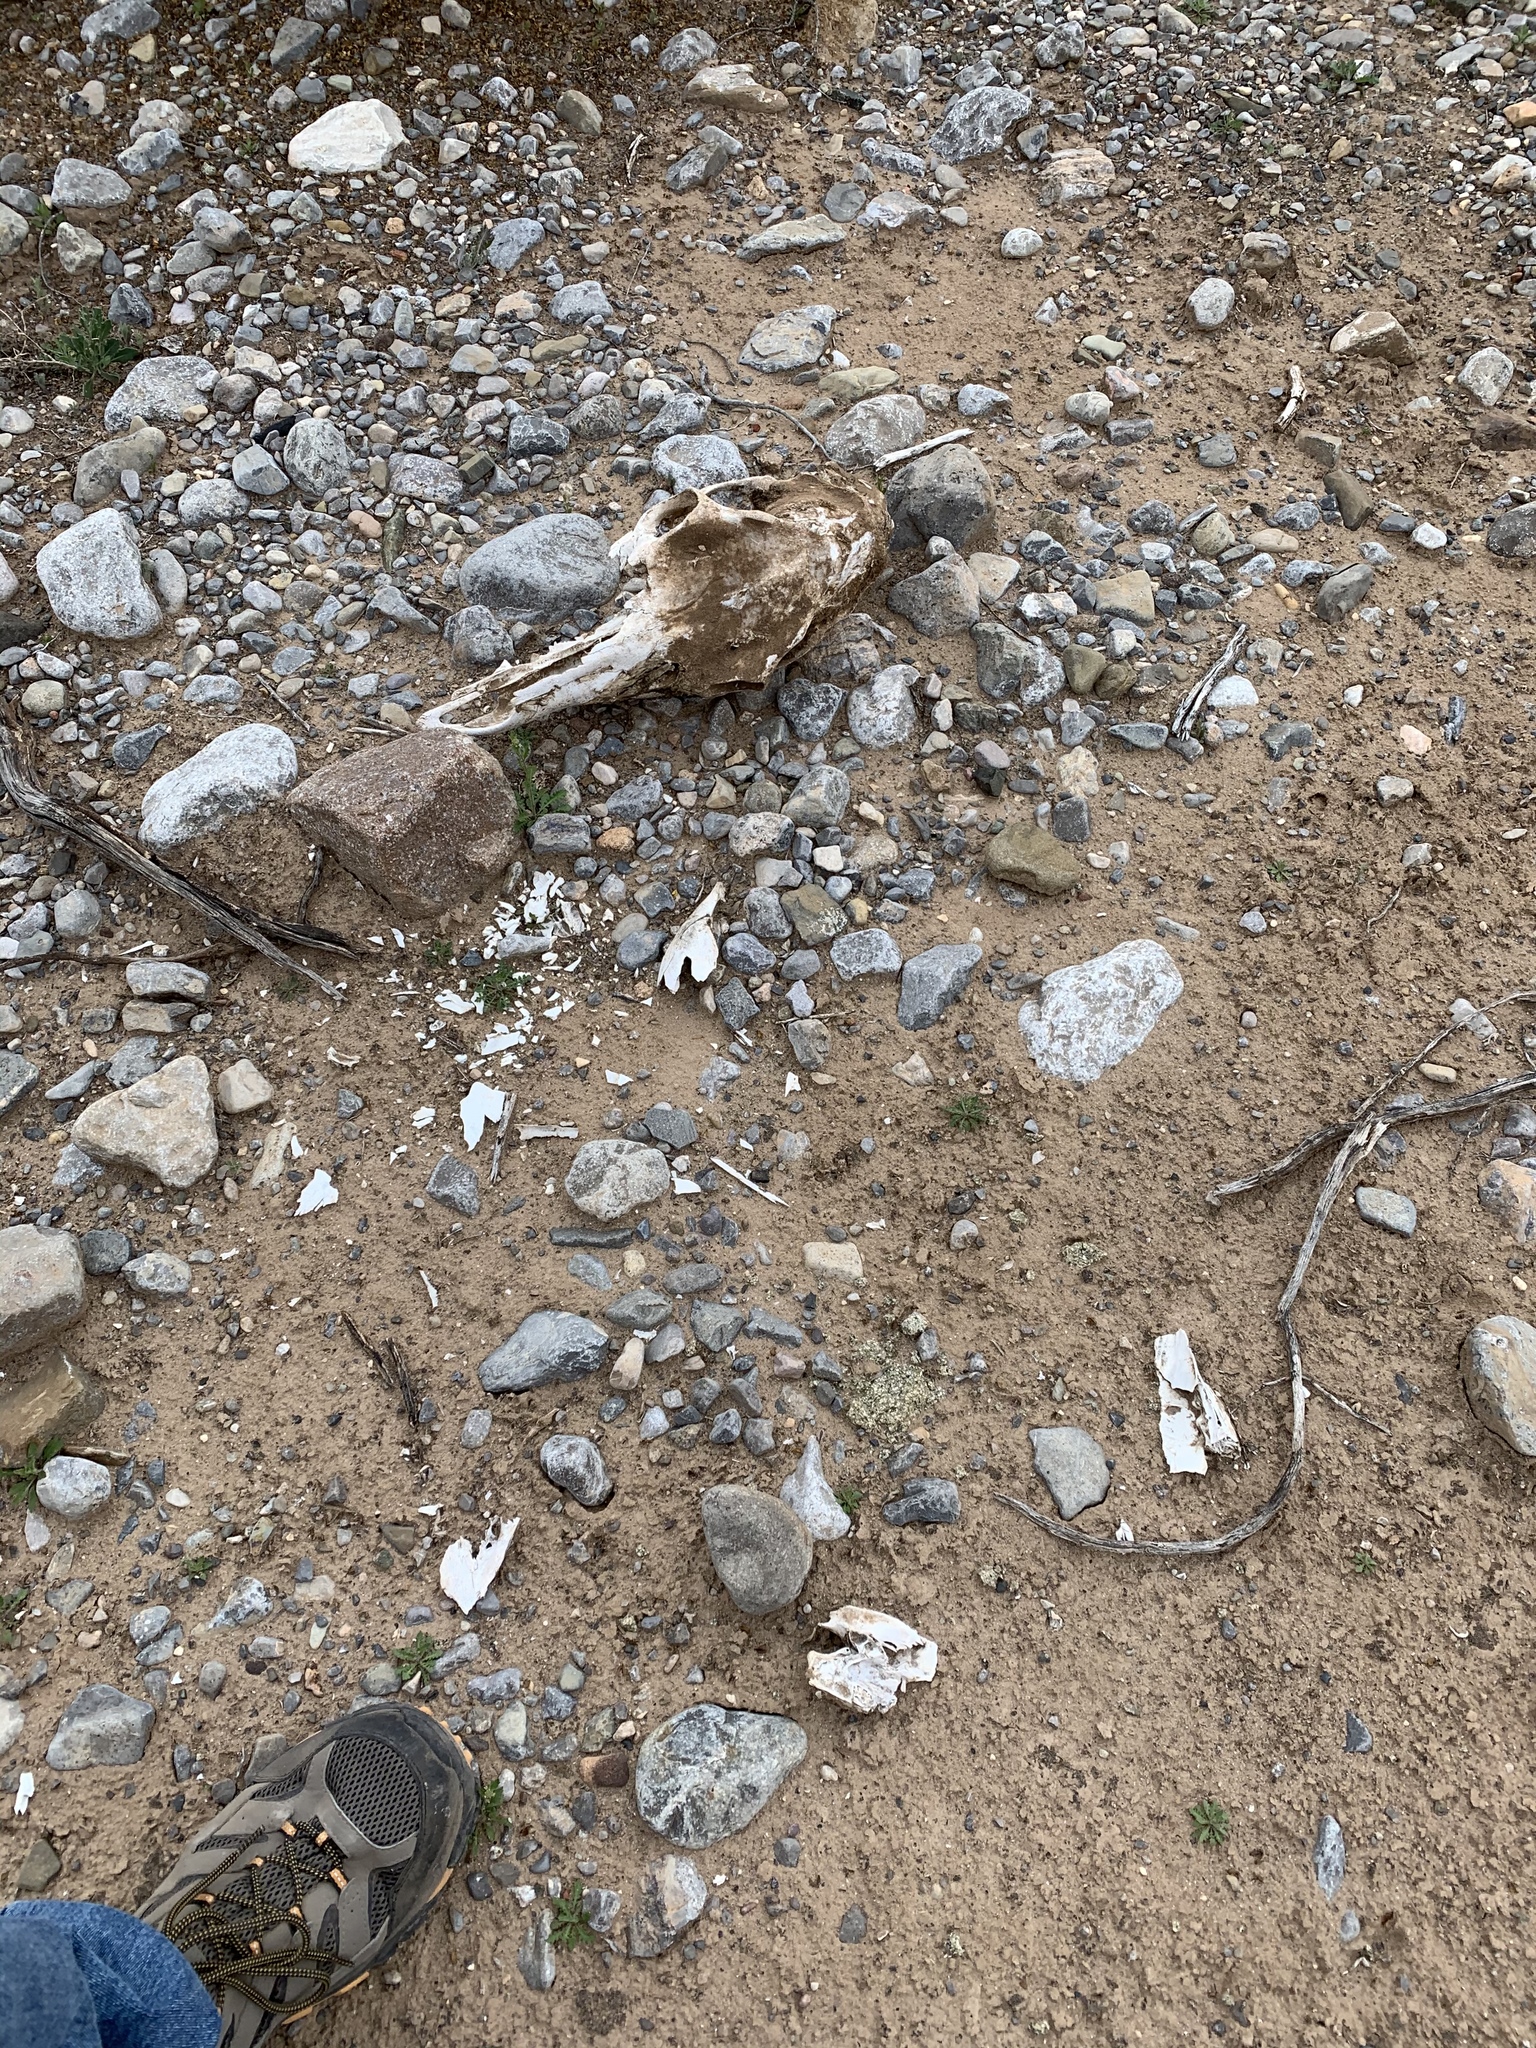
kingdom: Animalia
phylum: Chordata
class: Mammalia
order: Artiodactyla
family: Cervidae
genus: Cervus
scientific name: Cervus elaphus
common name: Red deer
